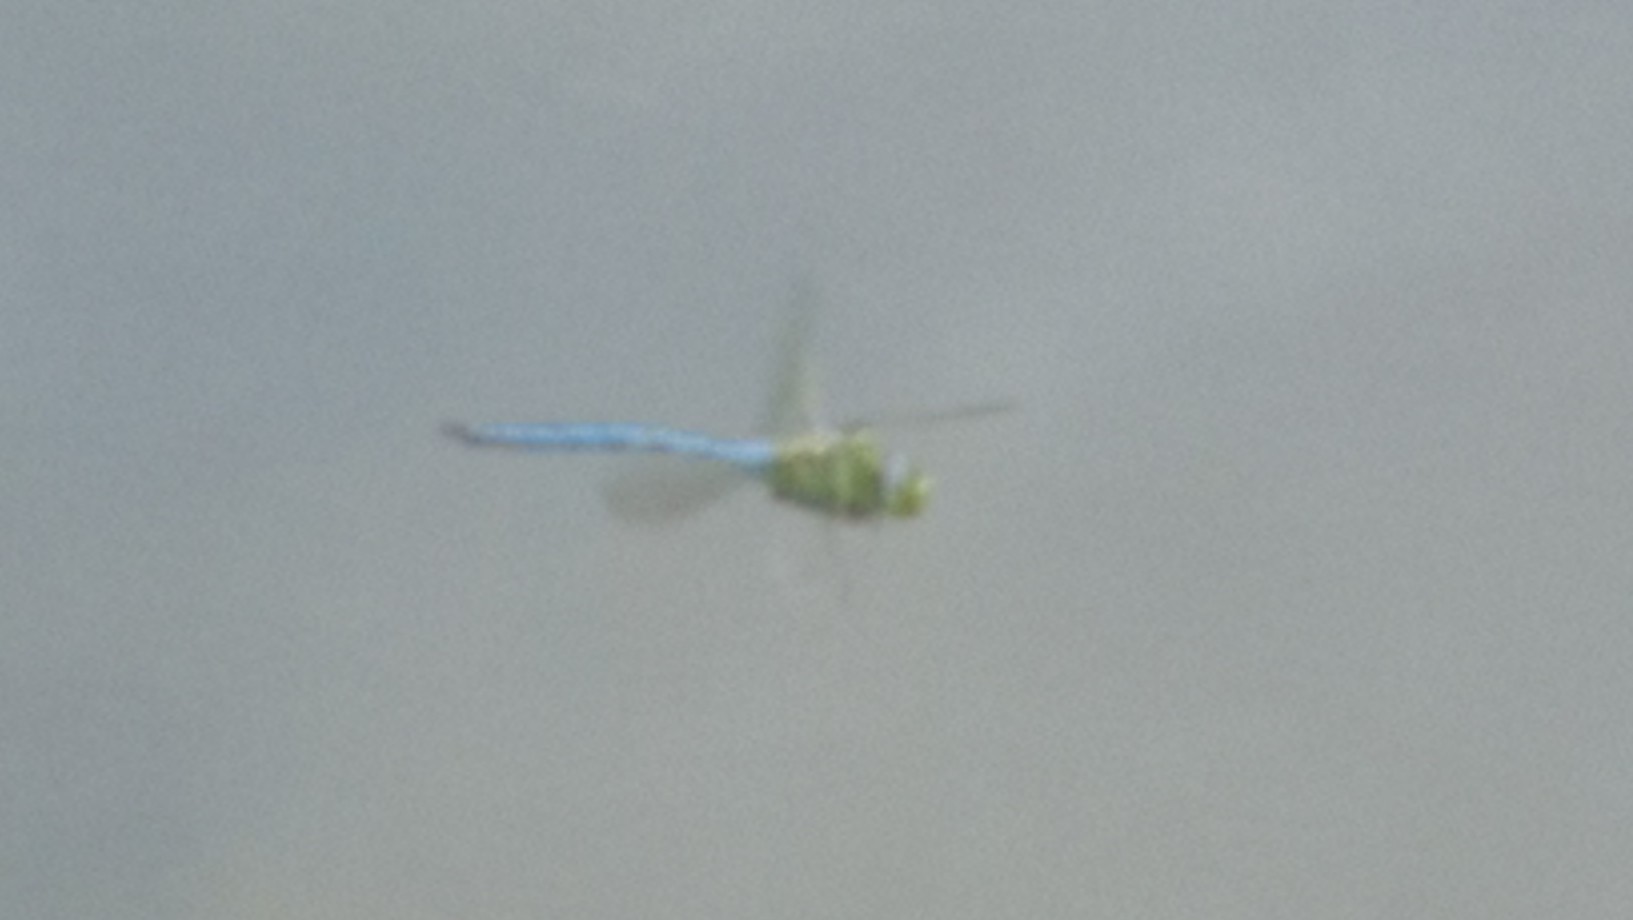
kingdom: Animalia
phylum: Arthropoda
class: Insecta
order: Odonata
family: Aeshnidae
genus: Anax
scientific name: Anax imperator
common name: Emperor dragonfly
